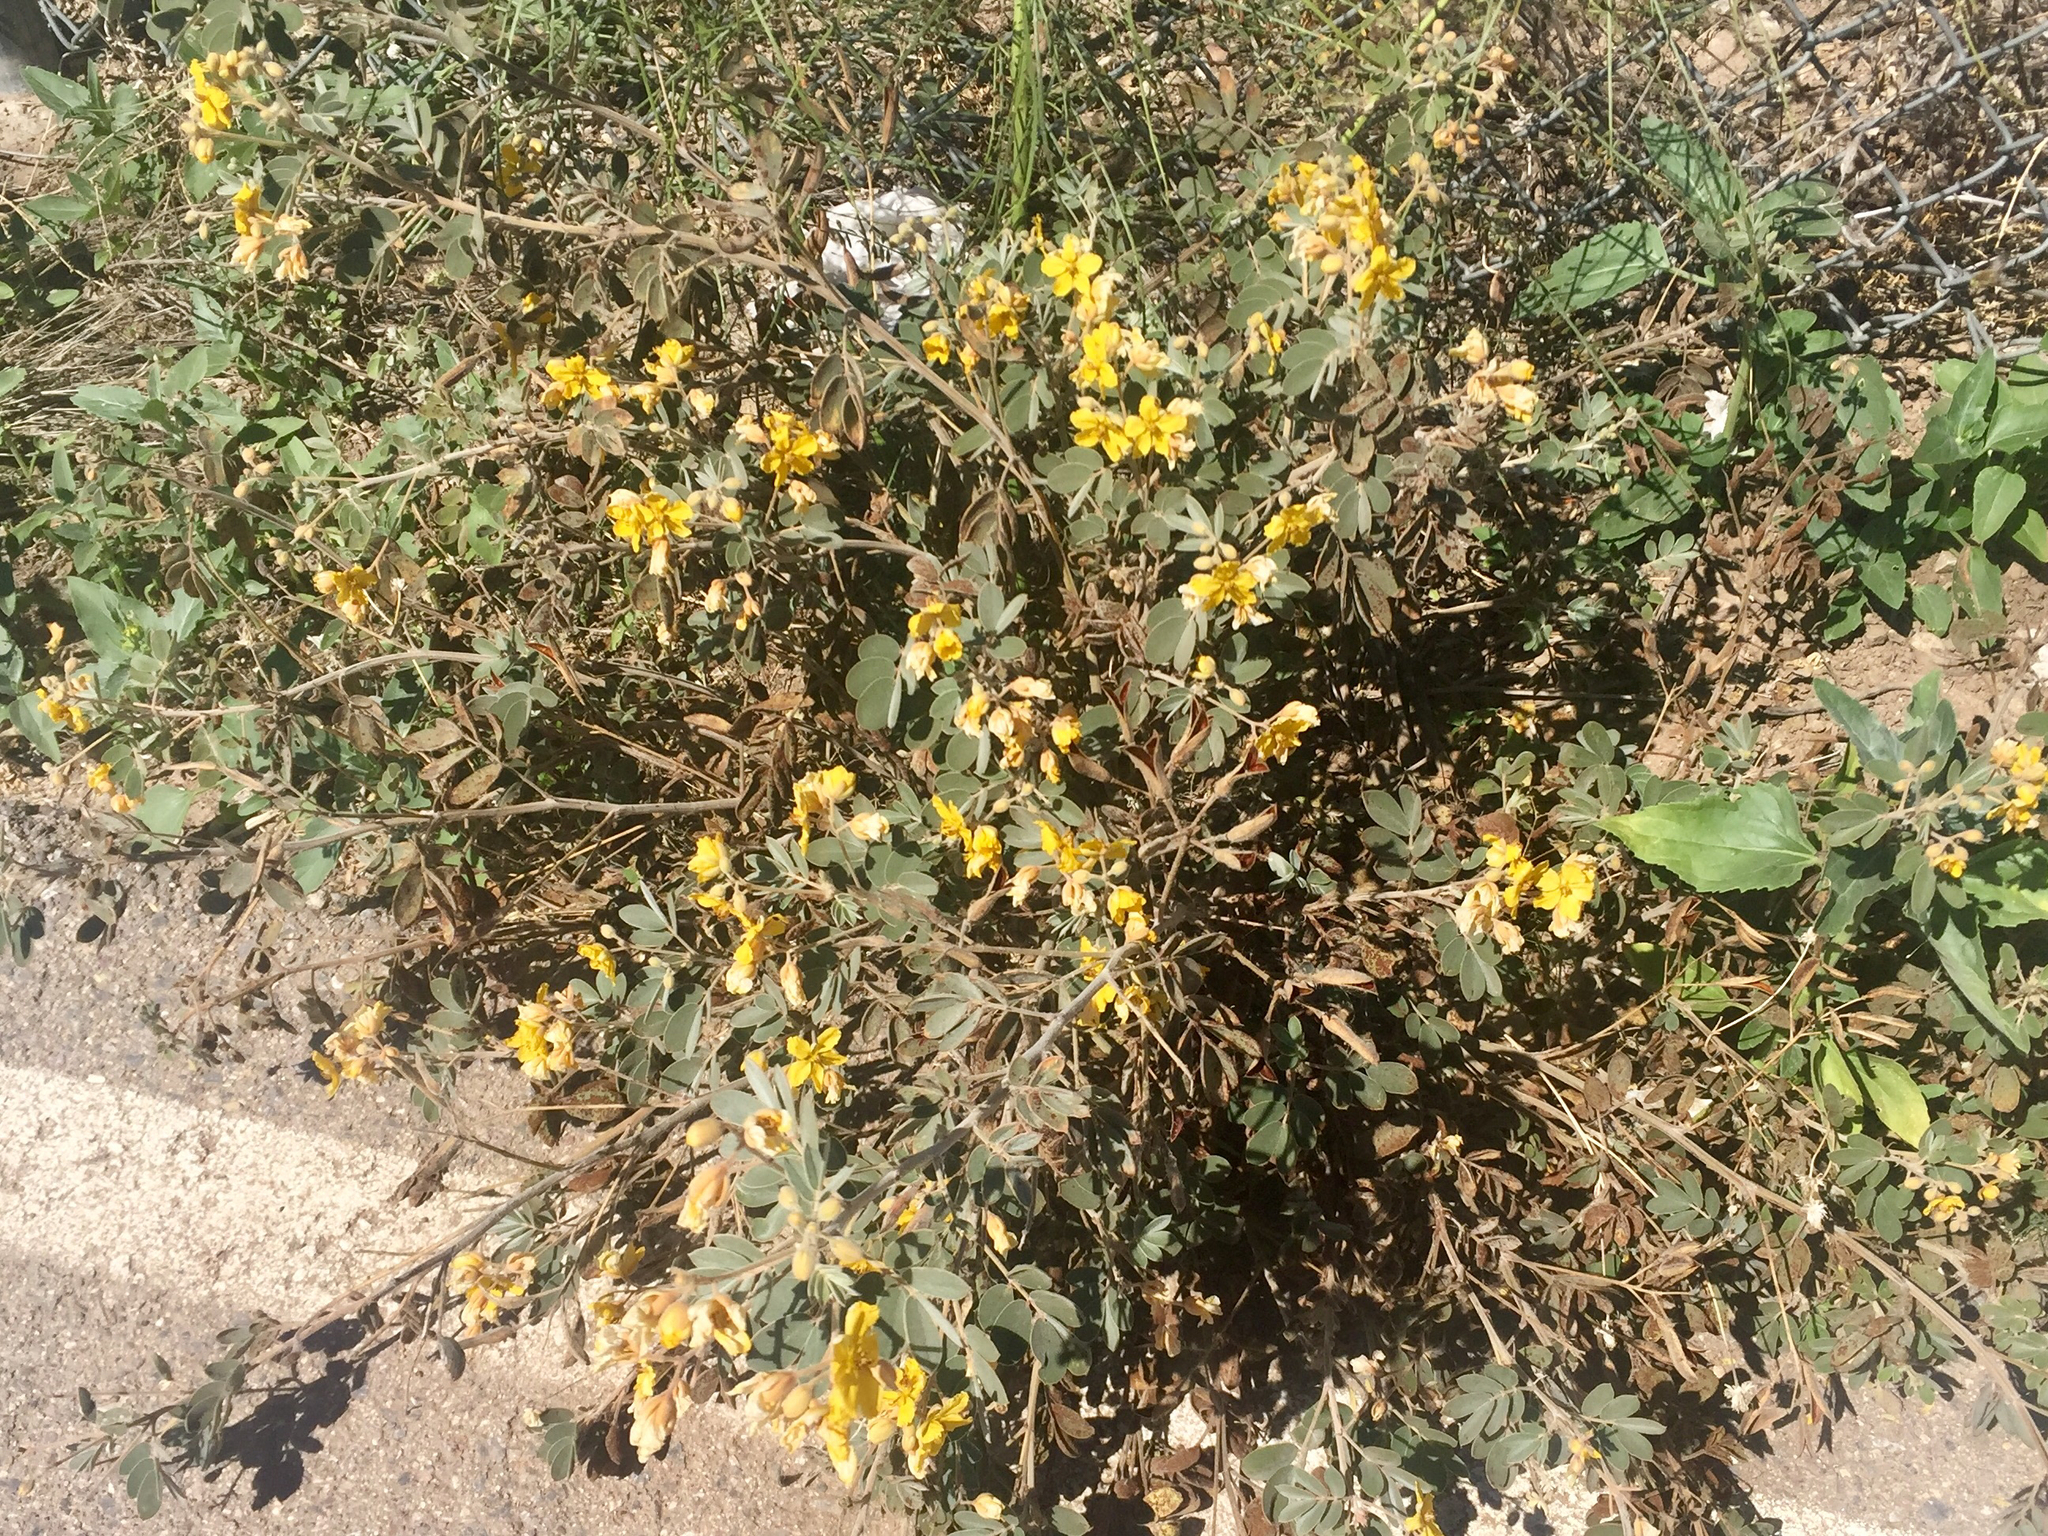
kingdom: Plantae
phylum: Tracheophyta
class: Magnoliopsida
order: Fabales
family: Fabaceae
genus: Senna
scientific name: Senna covesii
